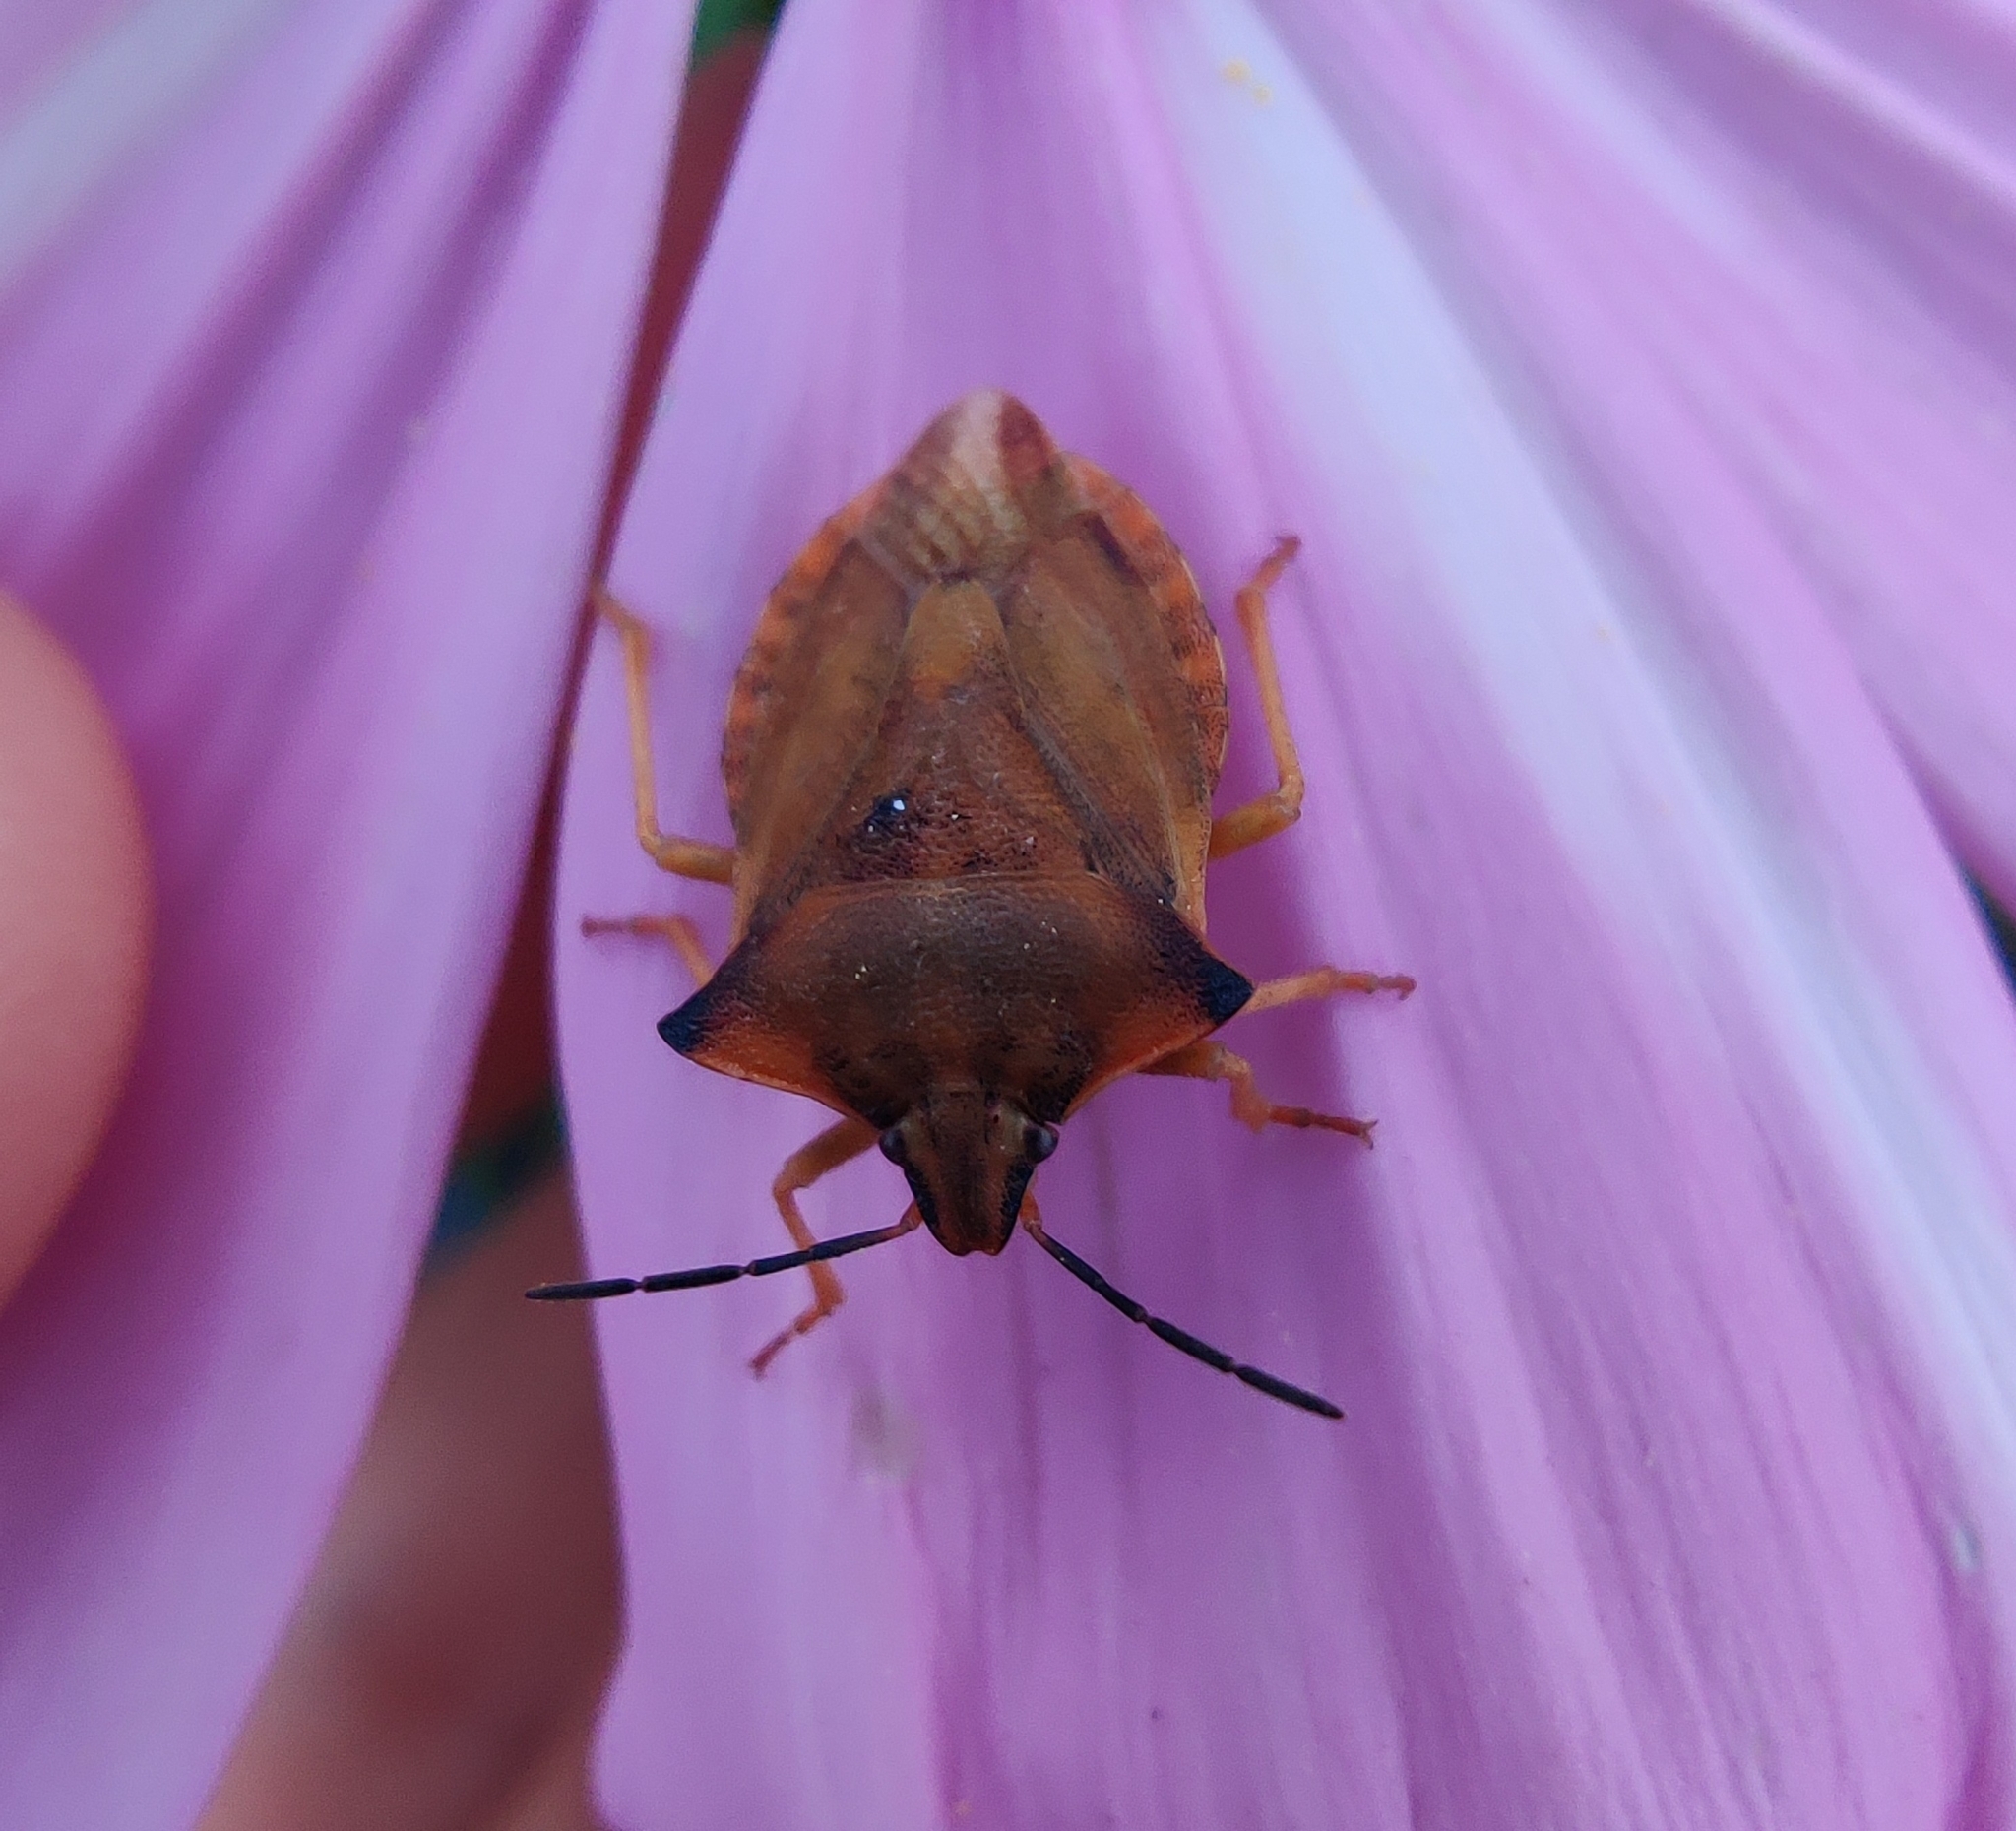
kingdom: Animalia
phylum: Arthropoda
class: Insecta
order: Hemiptera
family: Pentatomidae
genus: Carpocoris
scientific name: Carpocoris fuscispinus
